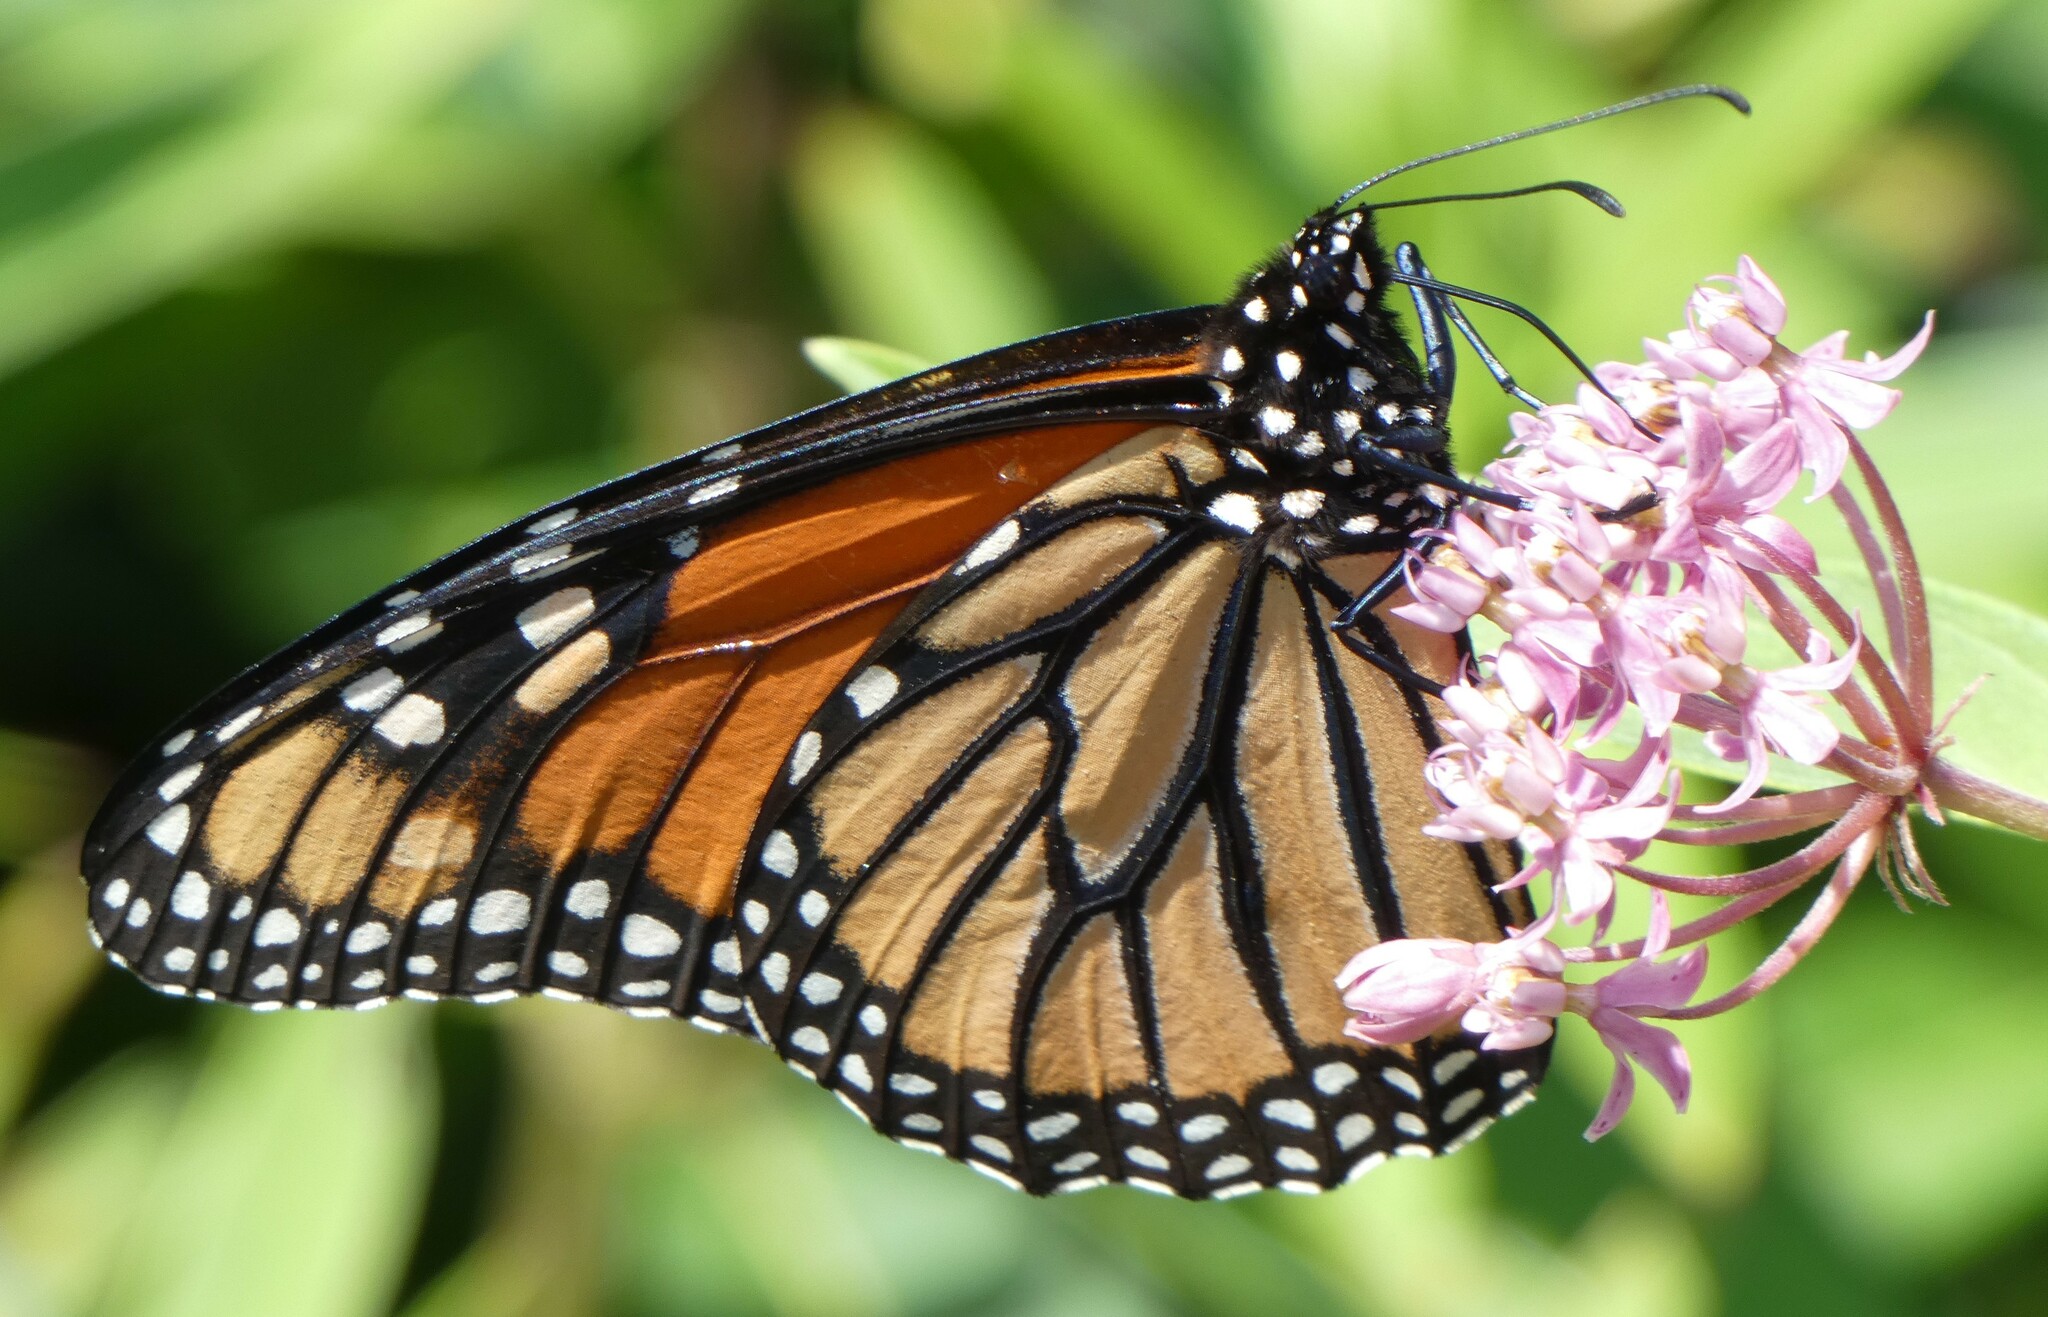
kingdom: Animalia
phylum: Arthropoda
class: Insecta
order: Lepidoptera
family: Nymphalidae
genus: Danaus
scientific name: Danaus plexippus
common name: Monarch
